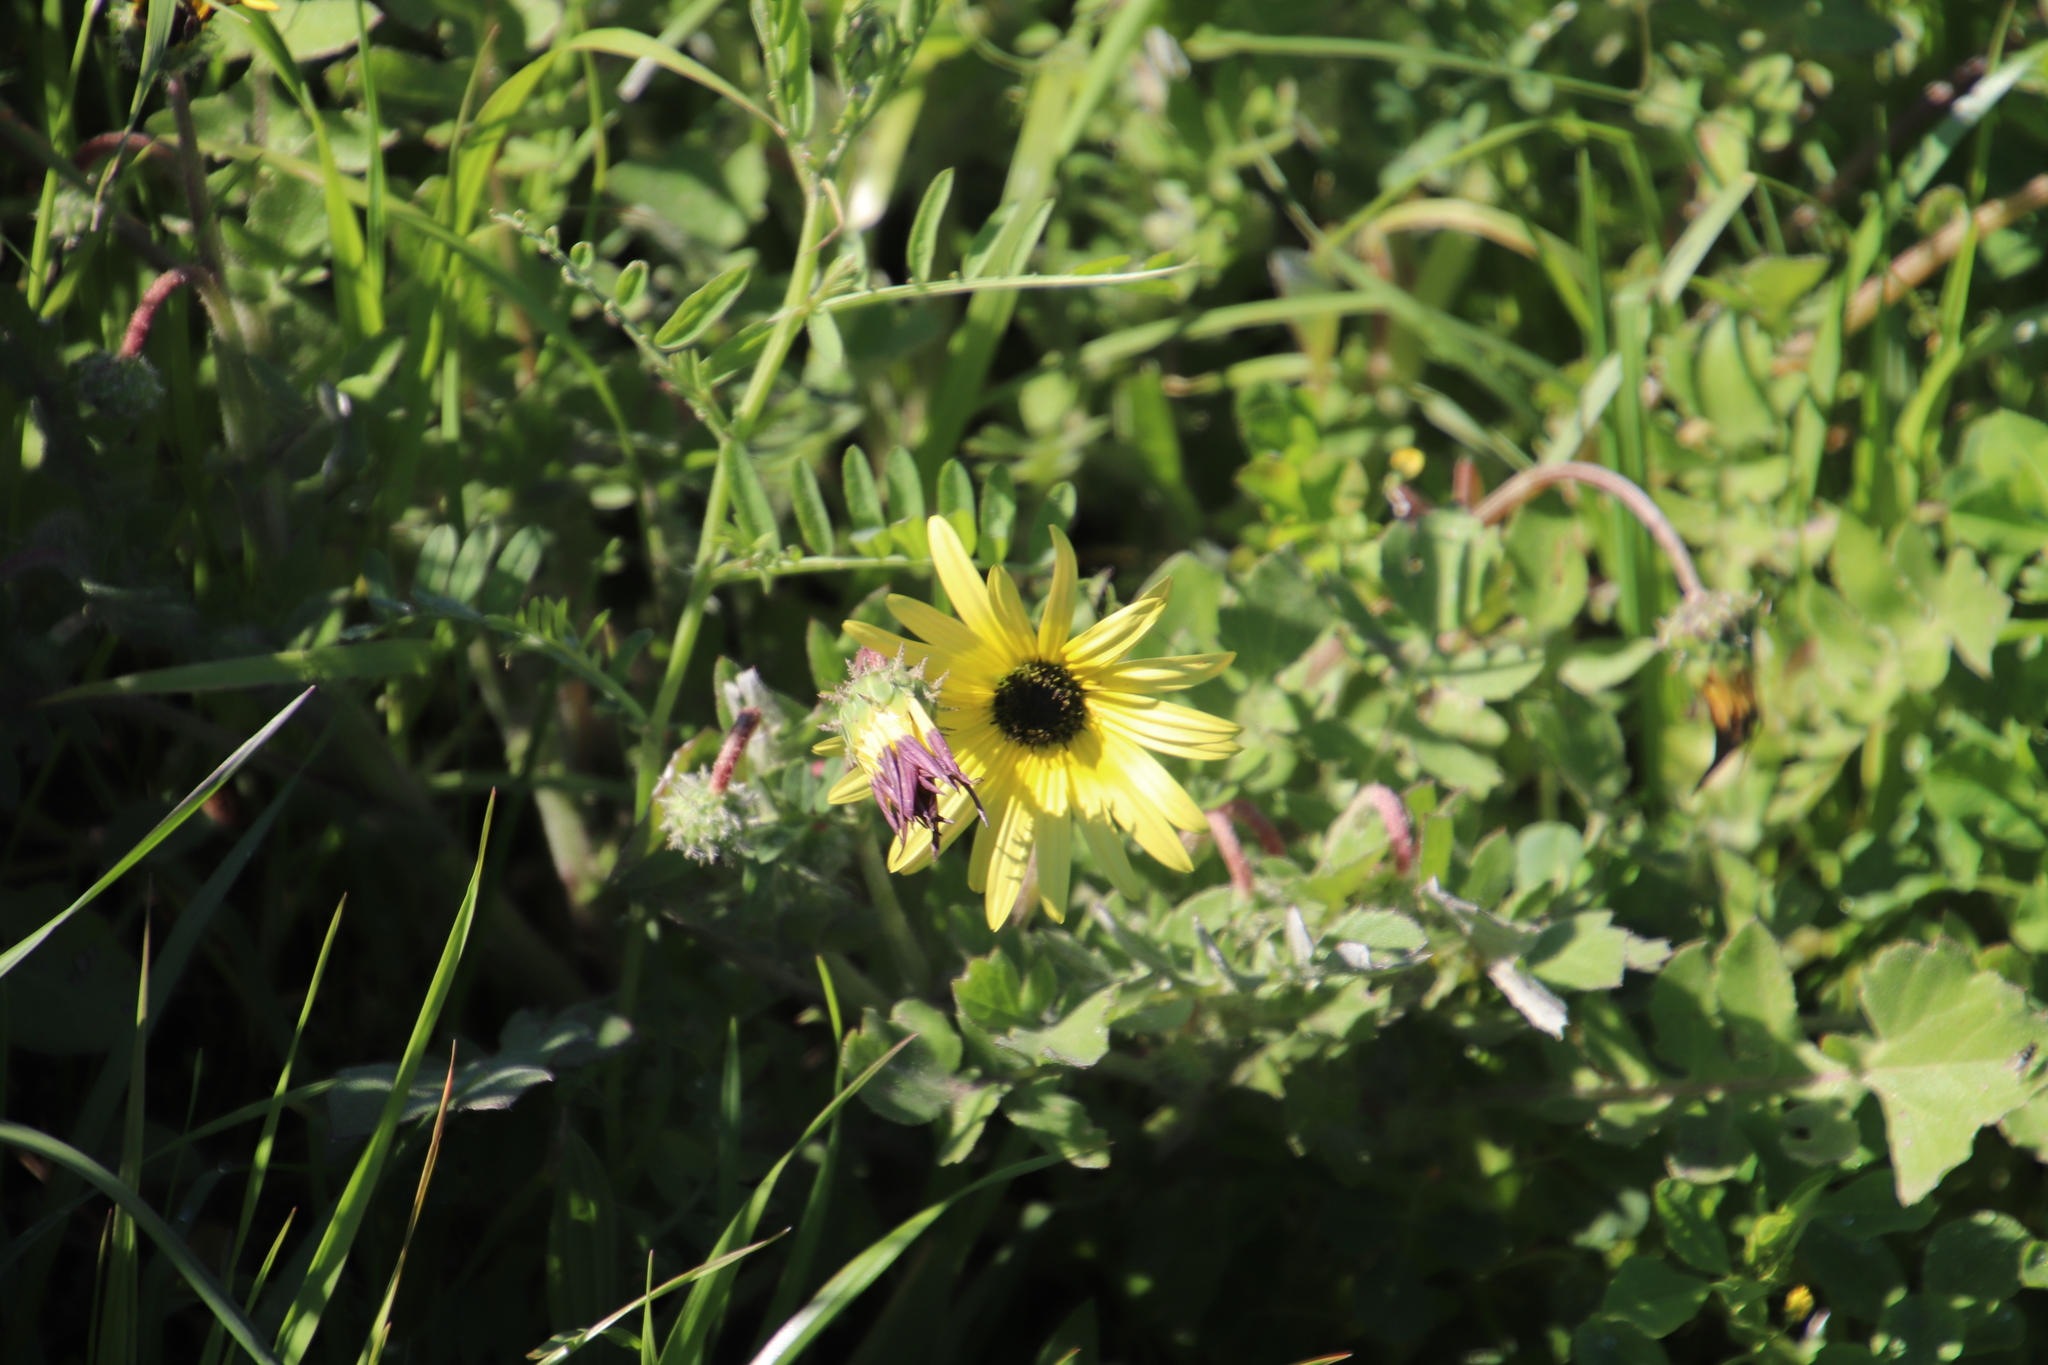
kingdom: Plantae
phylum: Tracheophyta
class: Magnoliopsida
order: Asterales
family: Asteraceae
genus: Arctotheca
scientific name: Arctotheca calendula
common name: Capeweed
